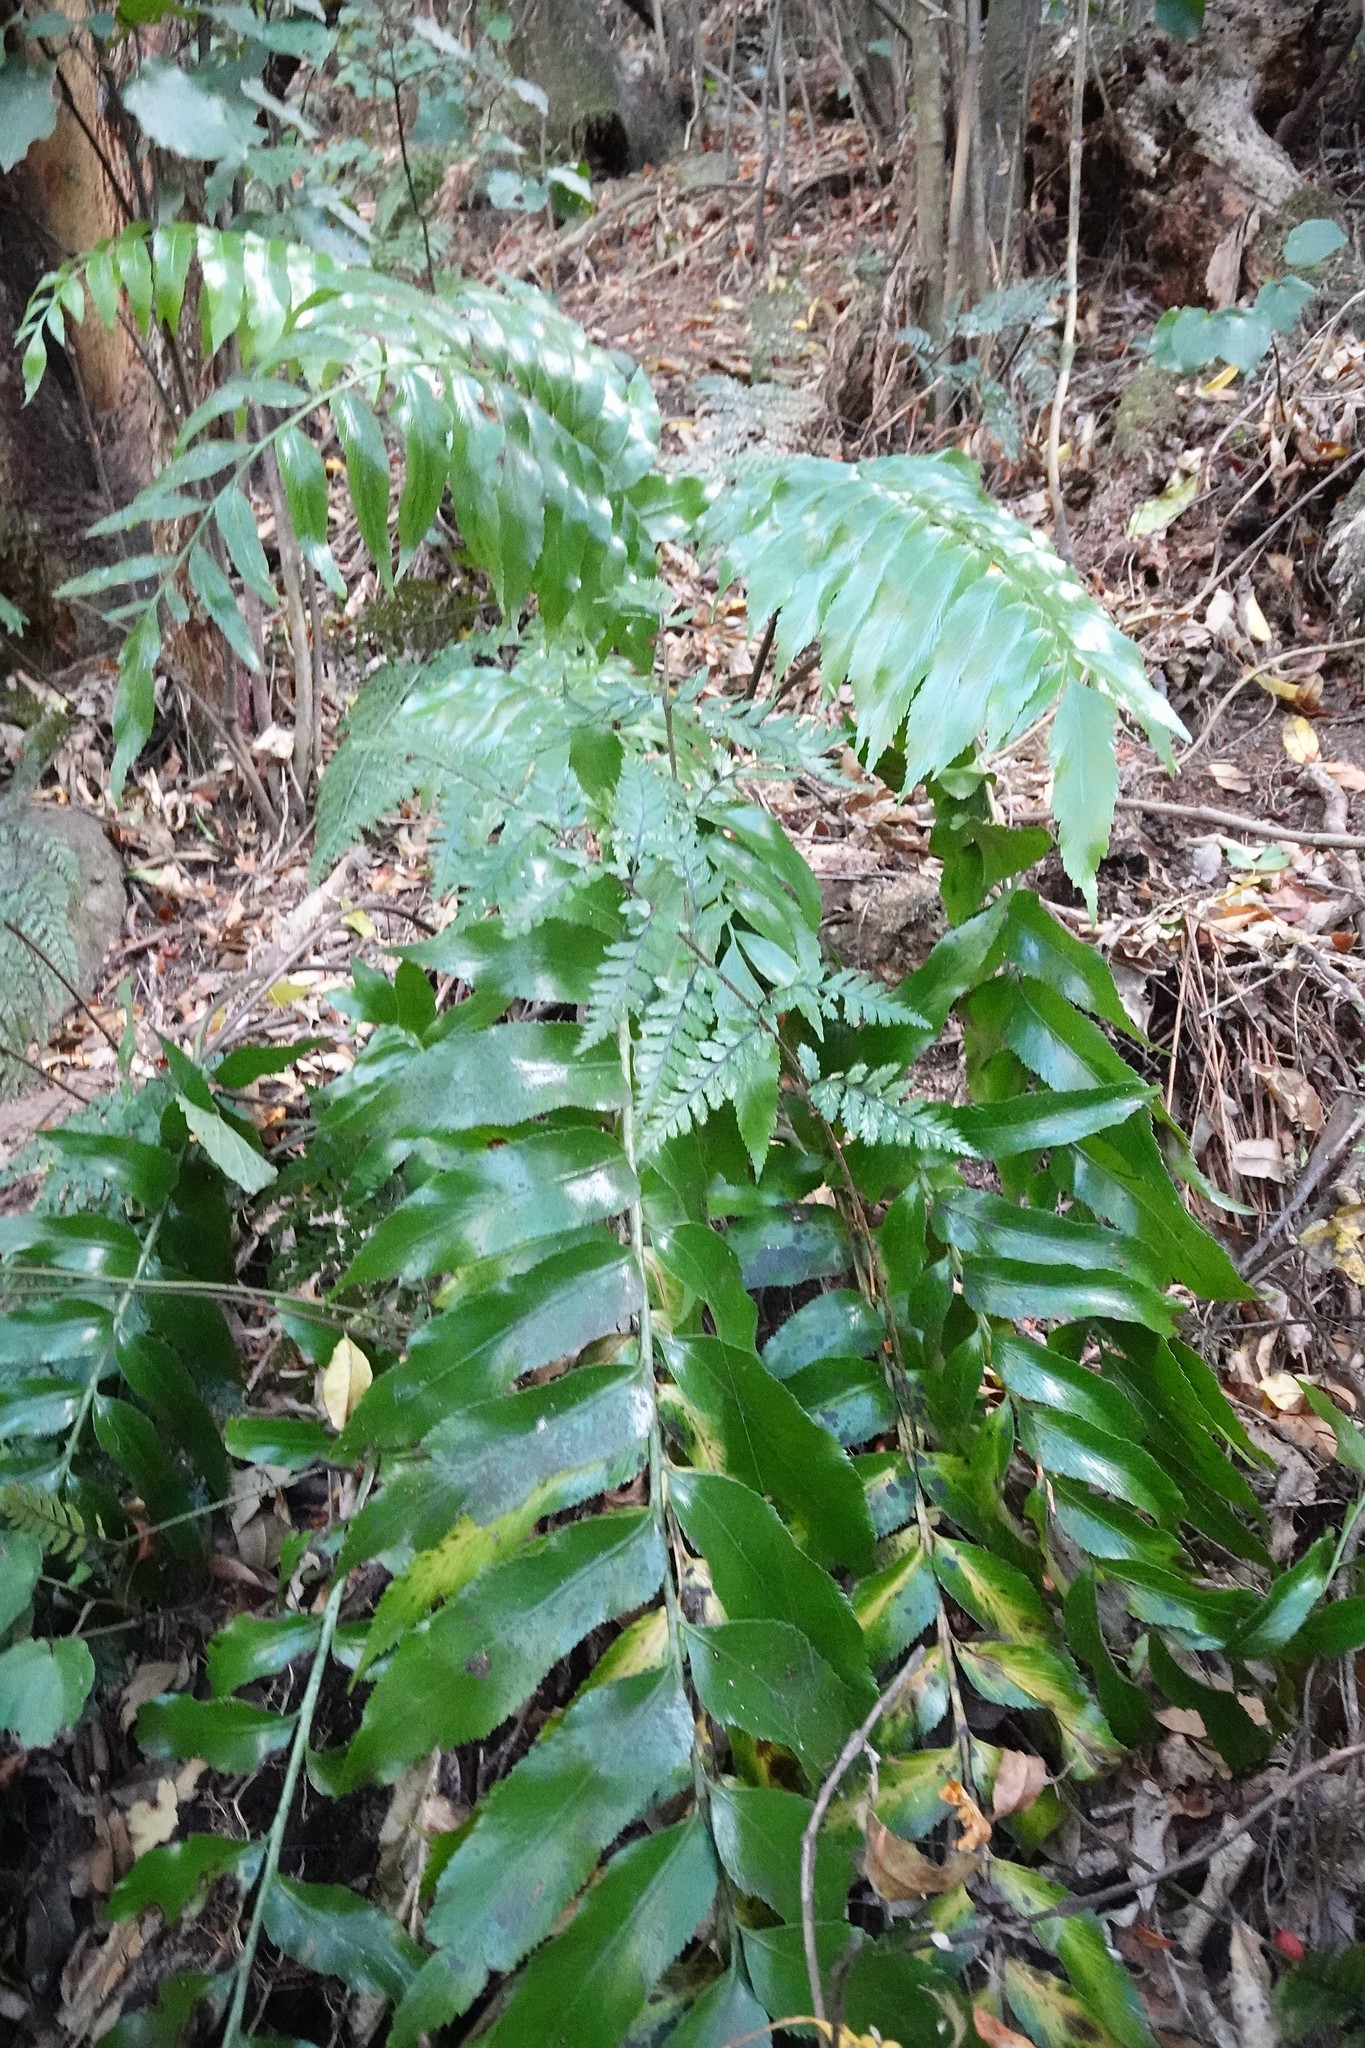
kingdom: Plantae
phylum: Tracheophyta
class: Polypodiopsida
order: Polypodiales
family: Aspleniaceae
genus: Asplenium
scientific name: Asplenium oblongifolium
